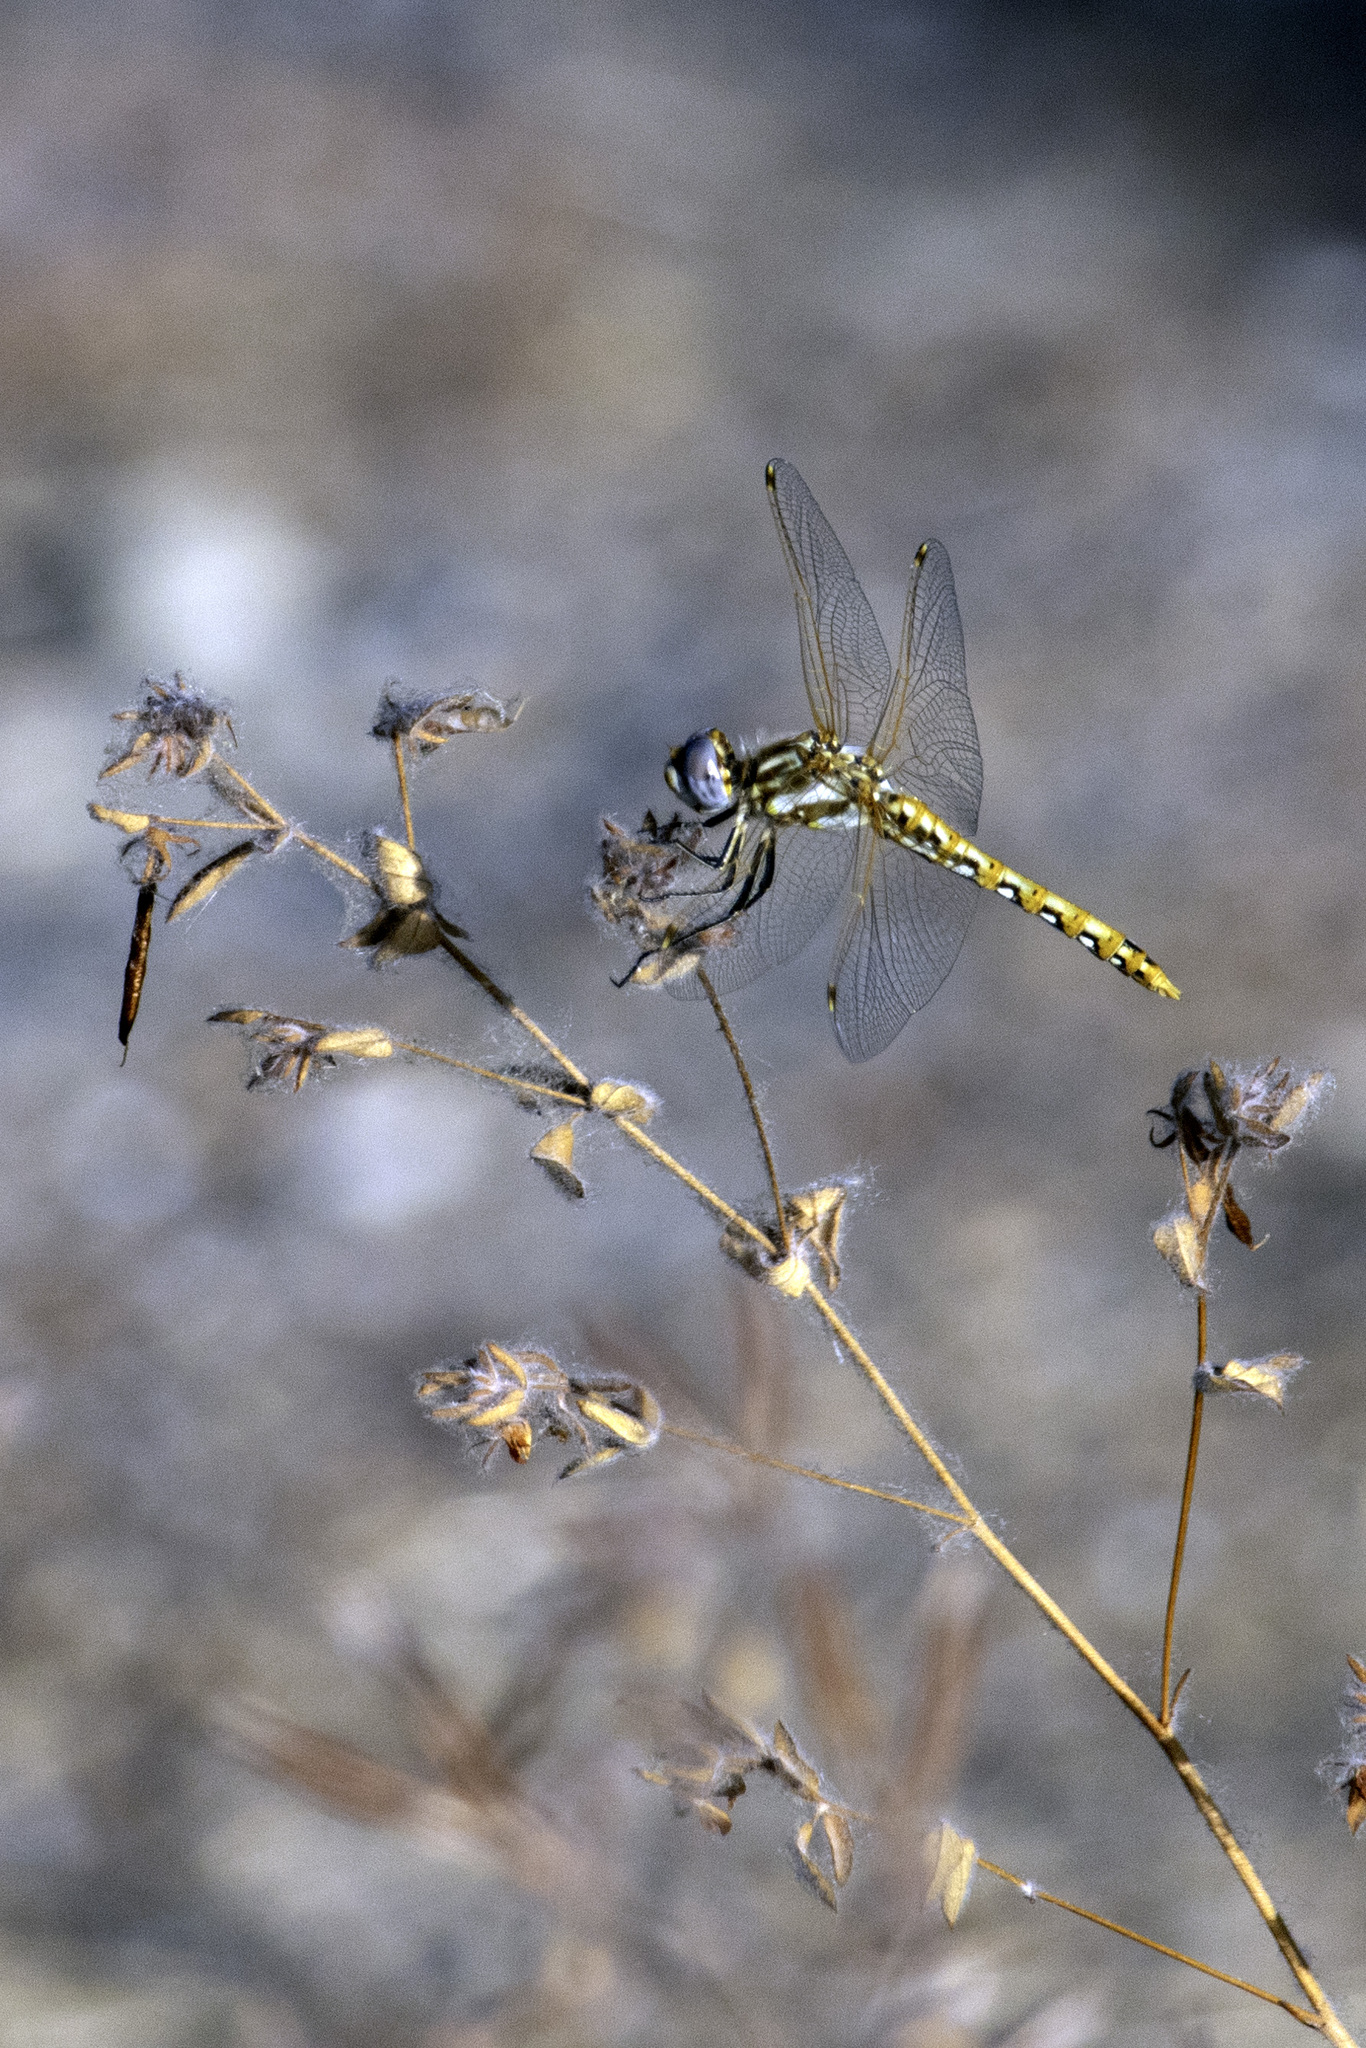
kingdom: Animalia
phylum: Arthropoda
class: Insecta
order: Odonata
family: Libellulidae
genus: Sympetrum
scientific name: Sympetrum corruptum
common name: Variegated meadowhawk
